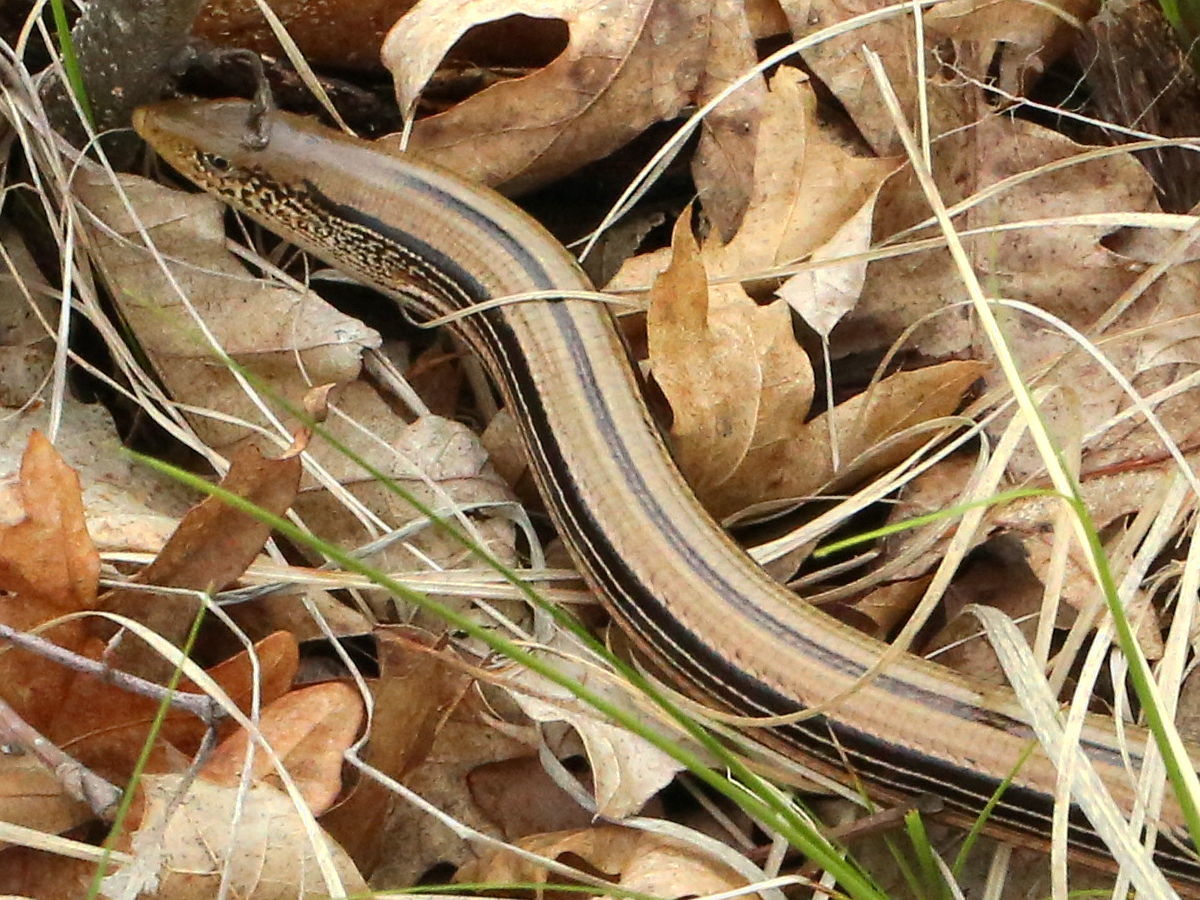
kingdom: Animalia
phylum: Chordata
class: Squamata
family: Anguidae
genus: Ophisaurus
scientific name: Ophisaurus attenuatus
